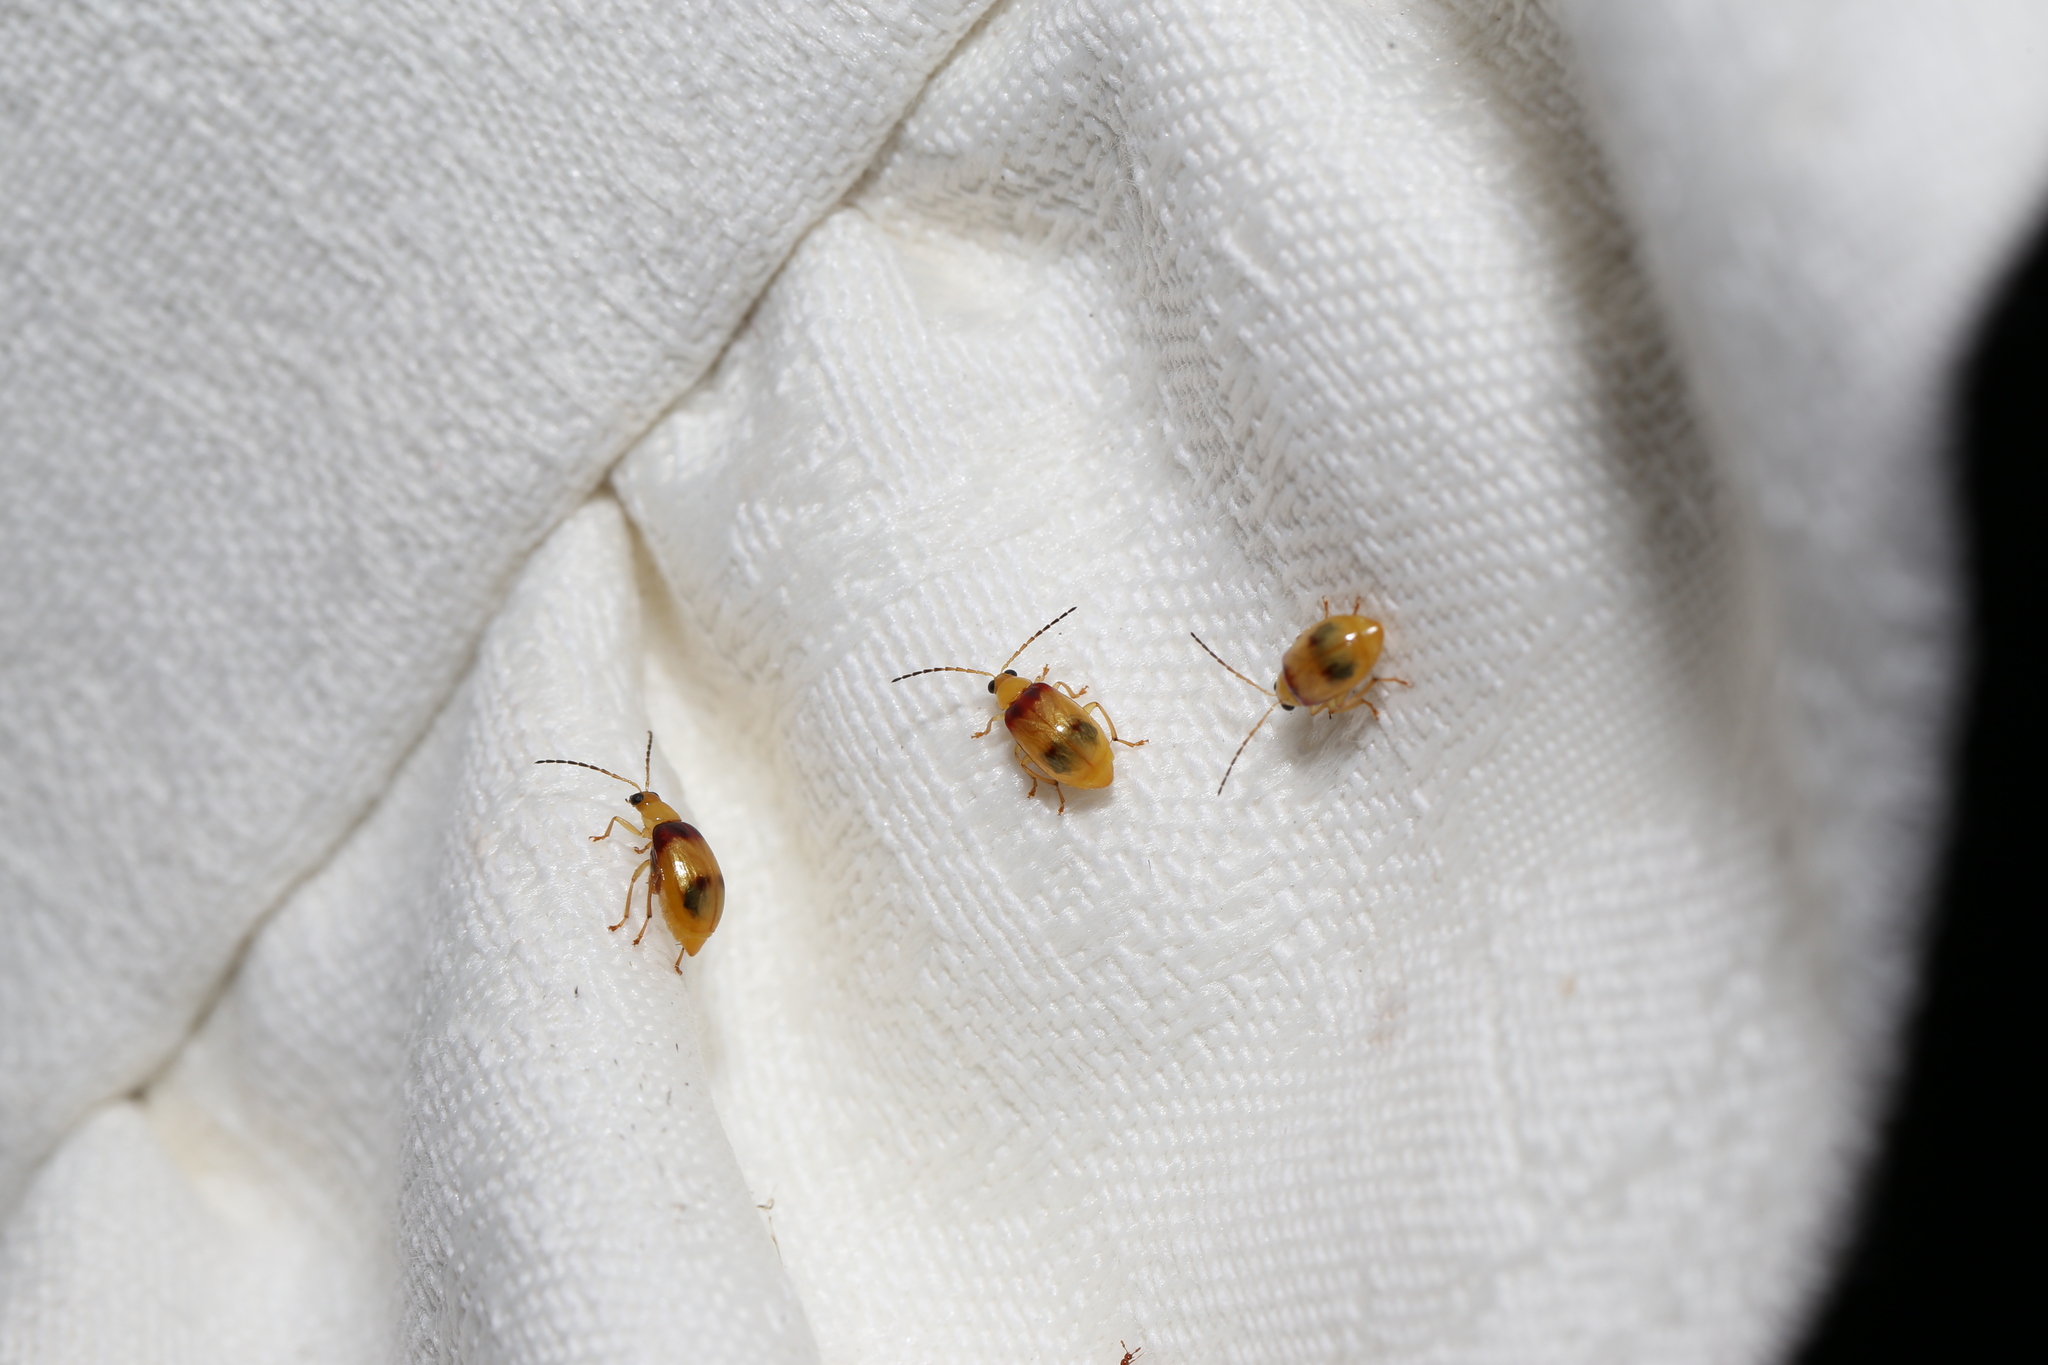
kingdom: Animalia
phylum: Arthropoda
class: Insecta
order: Coleoptera
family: Chrysomelidae
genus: Monolepta
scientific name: Monolepta
